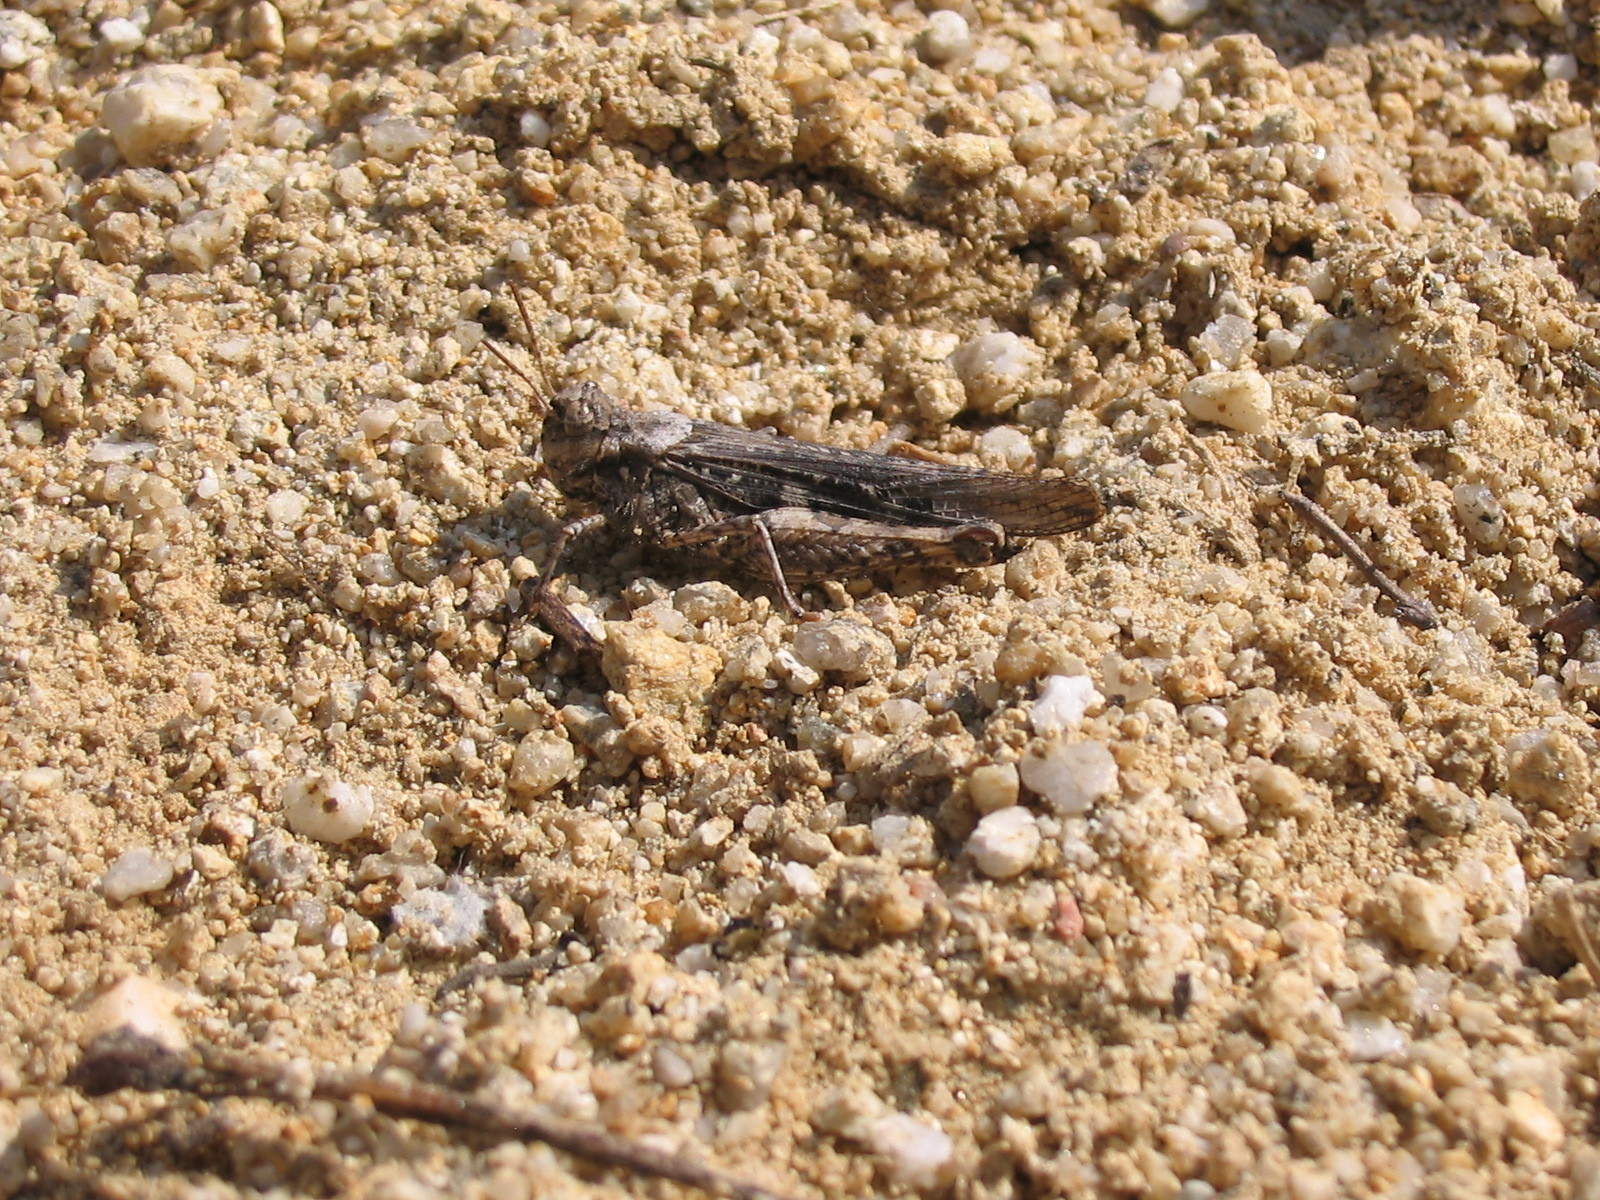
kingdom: Animalia
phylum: Arthropoda
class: Insecta
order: Orthoptera
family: Acrididae
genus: Acrotylus
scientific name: Acrotylus insubricus
